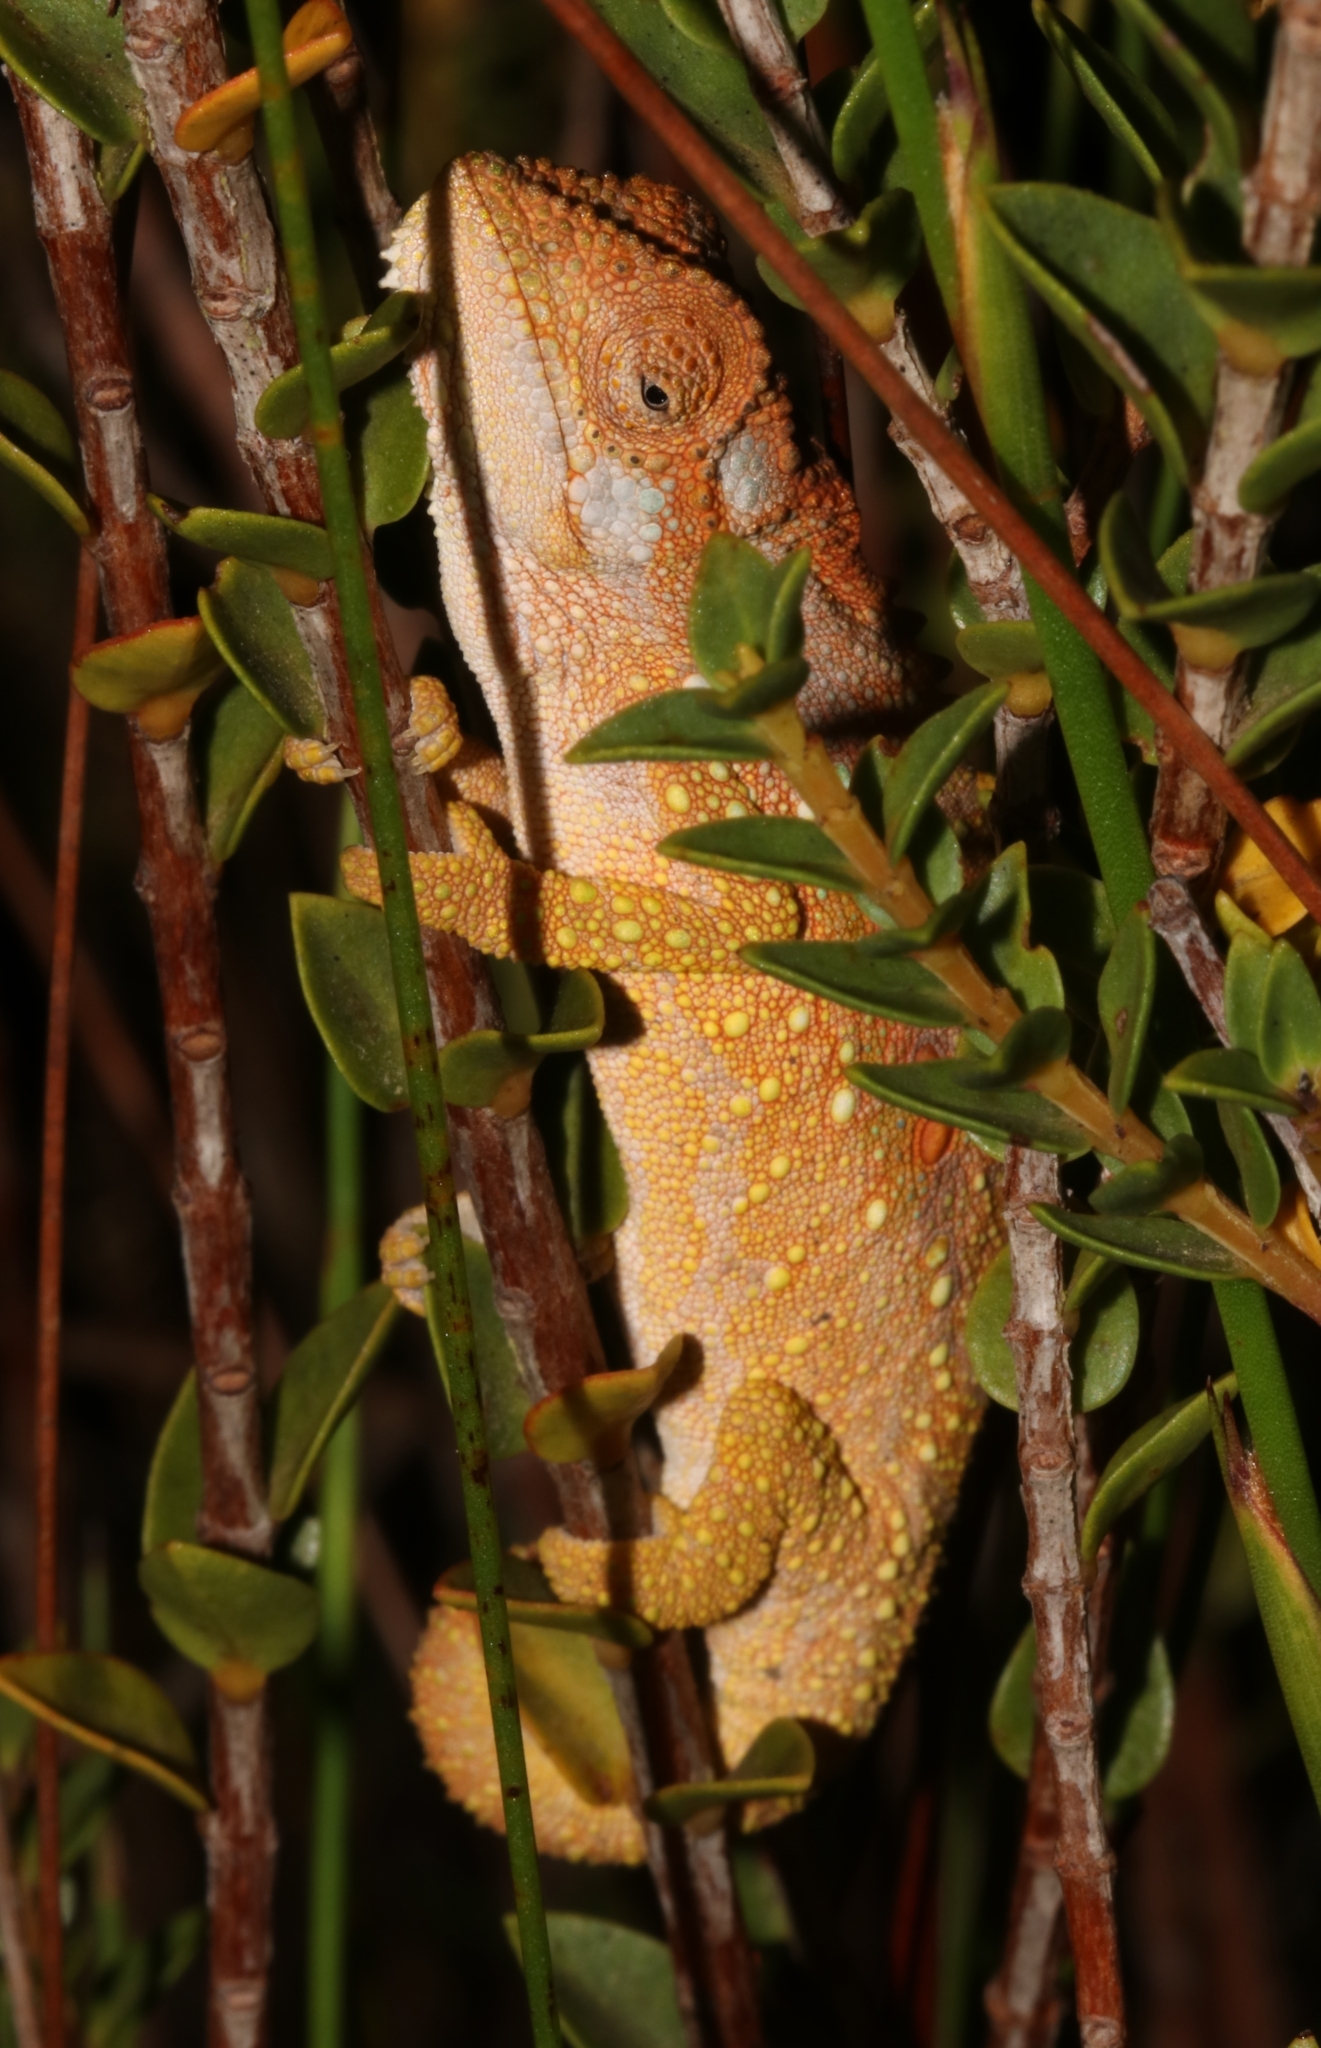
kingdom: Animalia
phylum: Chordata
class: Squamata
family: Chamaeleonidae
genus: Bradypodion
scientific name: Bradypodion gutturale
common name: Little karoo dwarf chameleon
